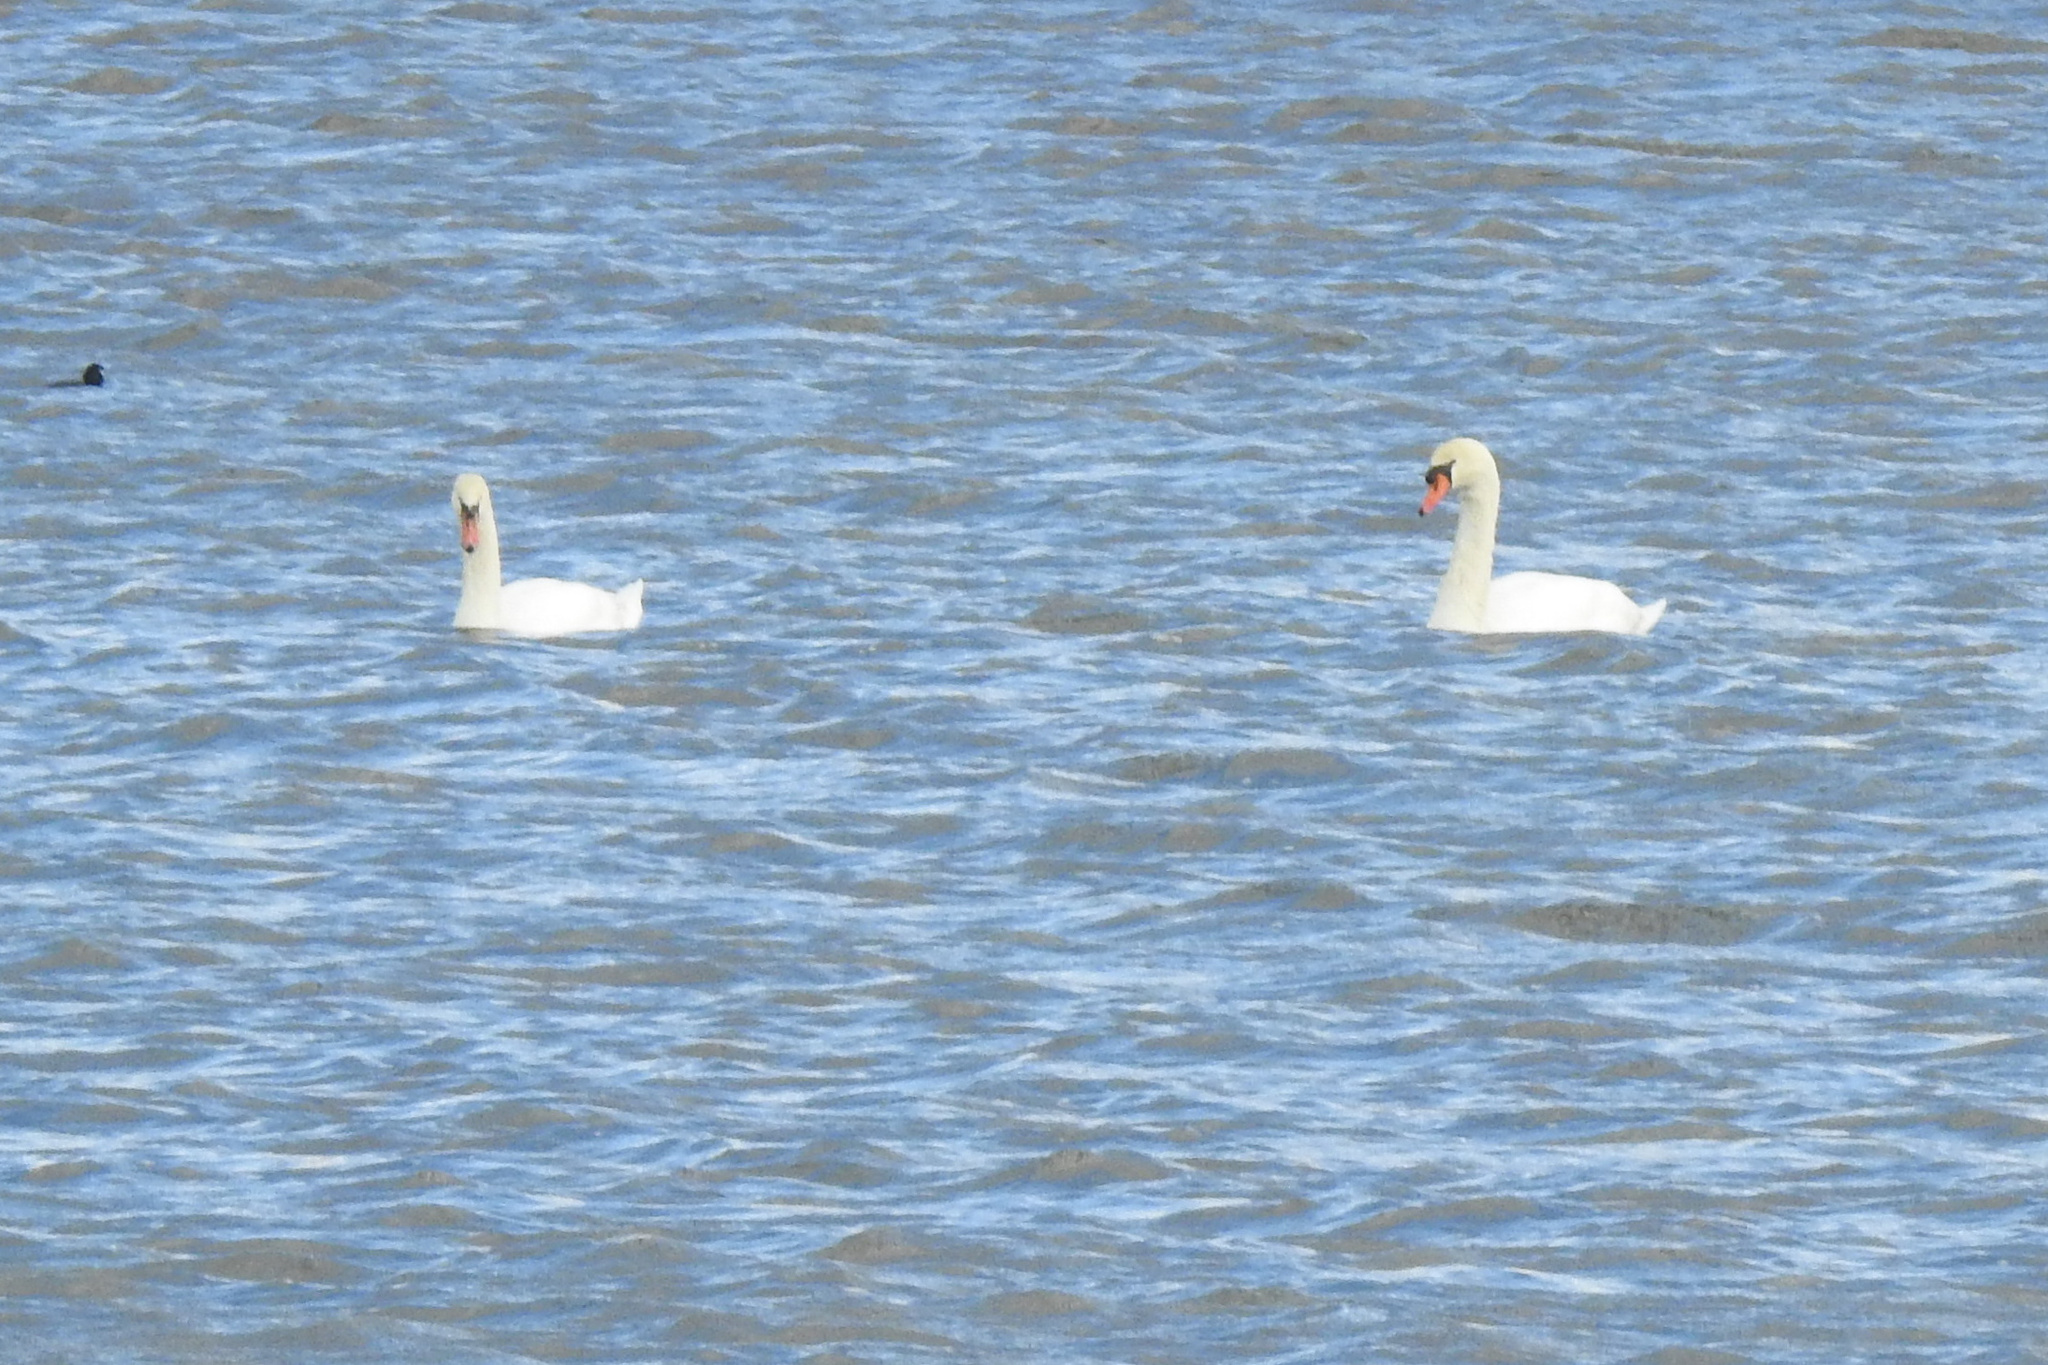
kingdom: Animalia
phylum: Chordata
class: Aves
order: Anseriformes
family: Anatidae
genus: Cygnus
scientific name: Cygnus olor
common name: Mute swan
